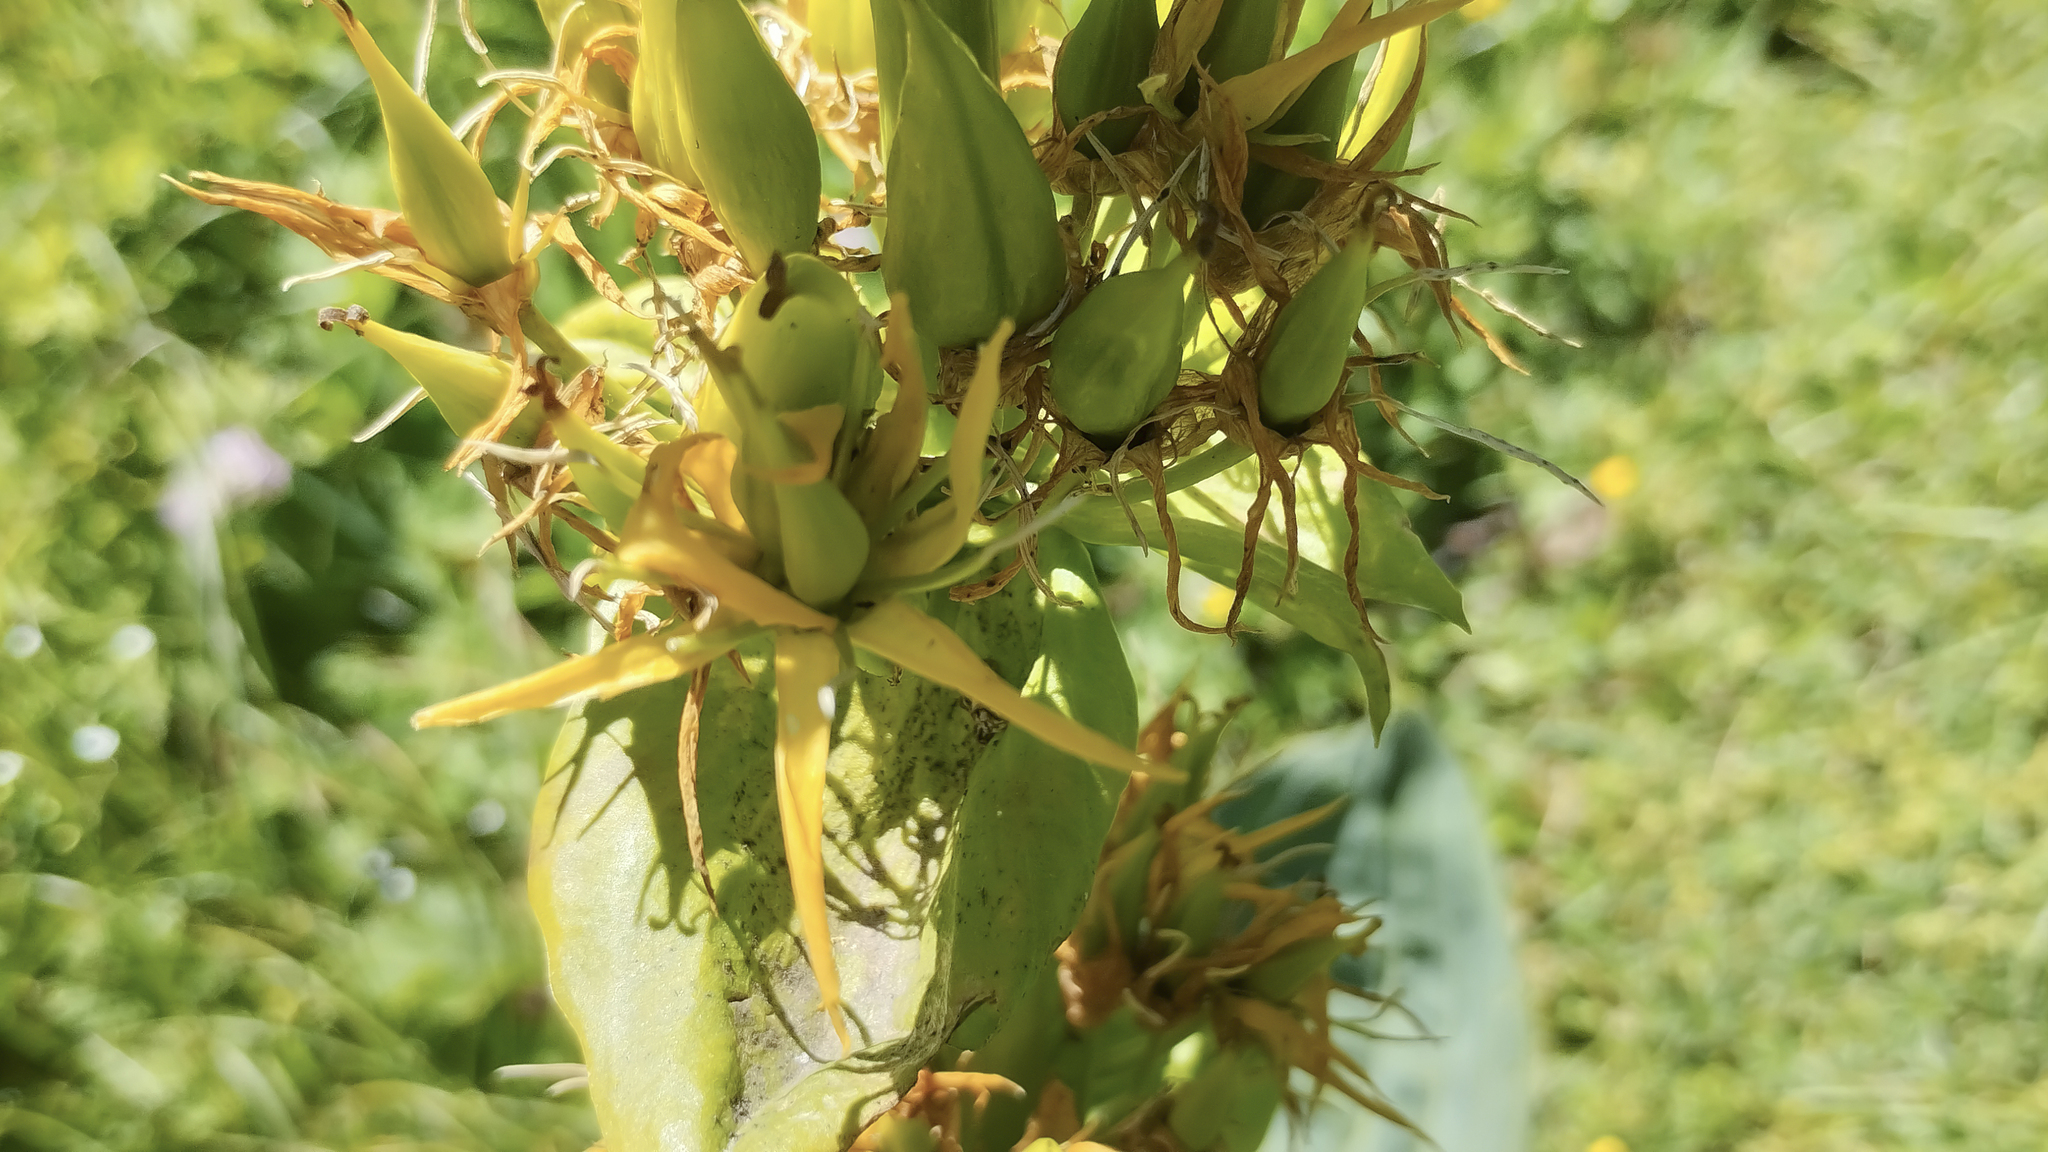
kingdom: Plantae
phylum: Tracheophyta
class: Magnoliopsida
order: Gentianales
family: Gentianaceae
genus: Gentiana
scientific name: Gentiana lutea
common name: Great yellow gentian
